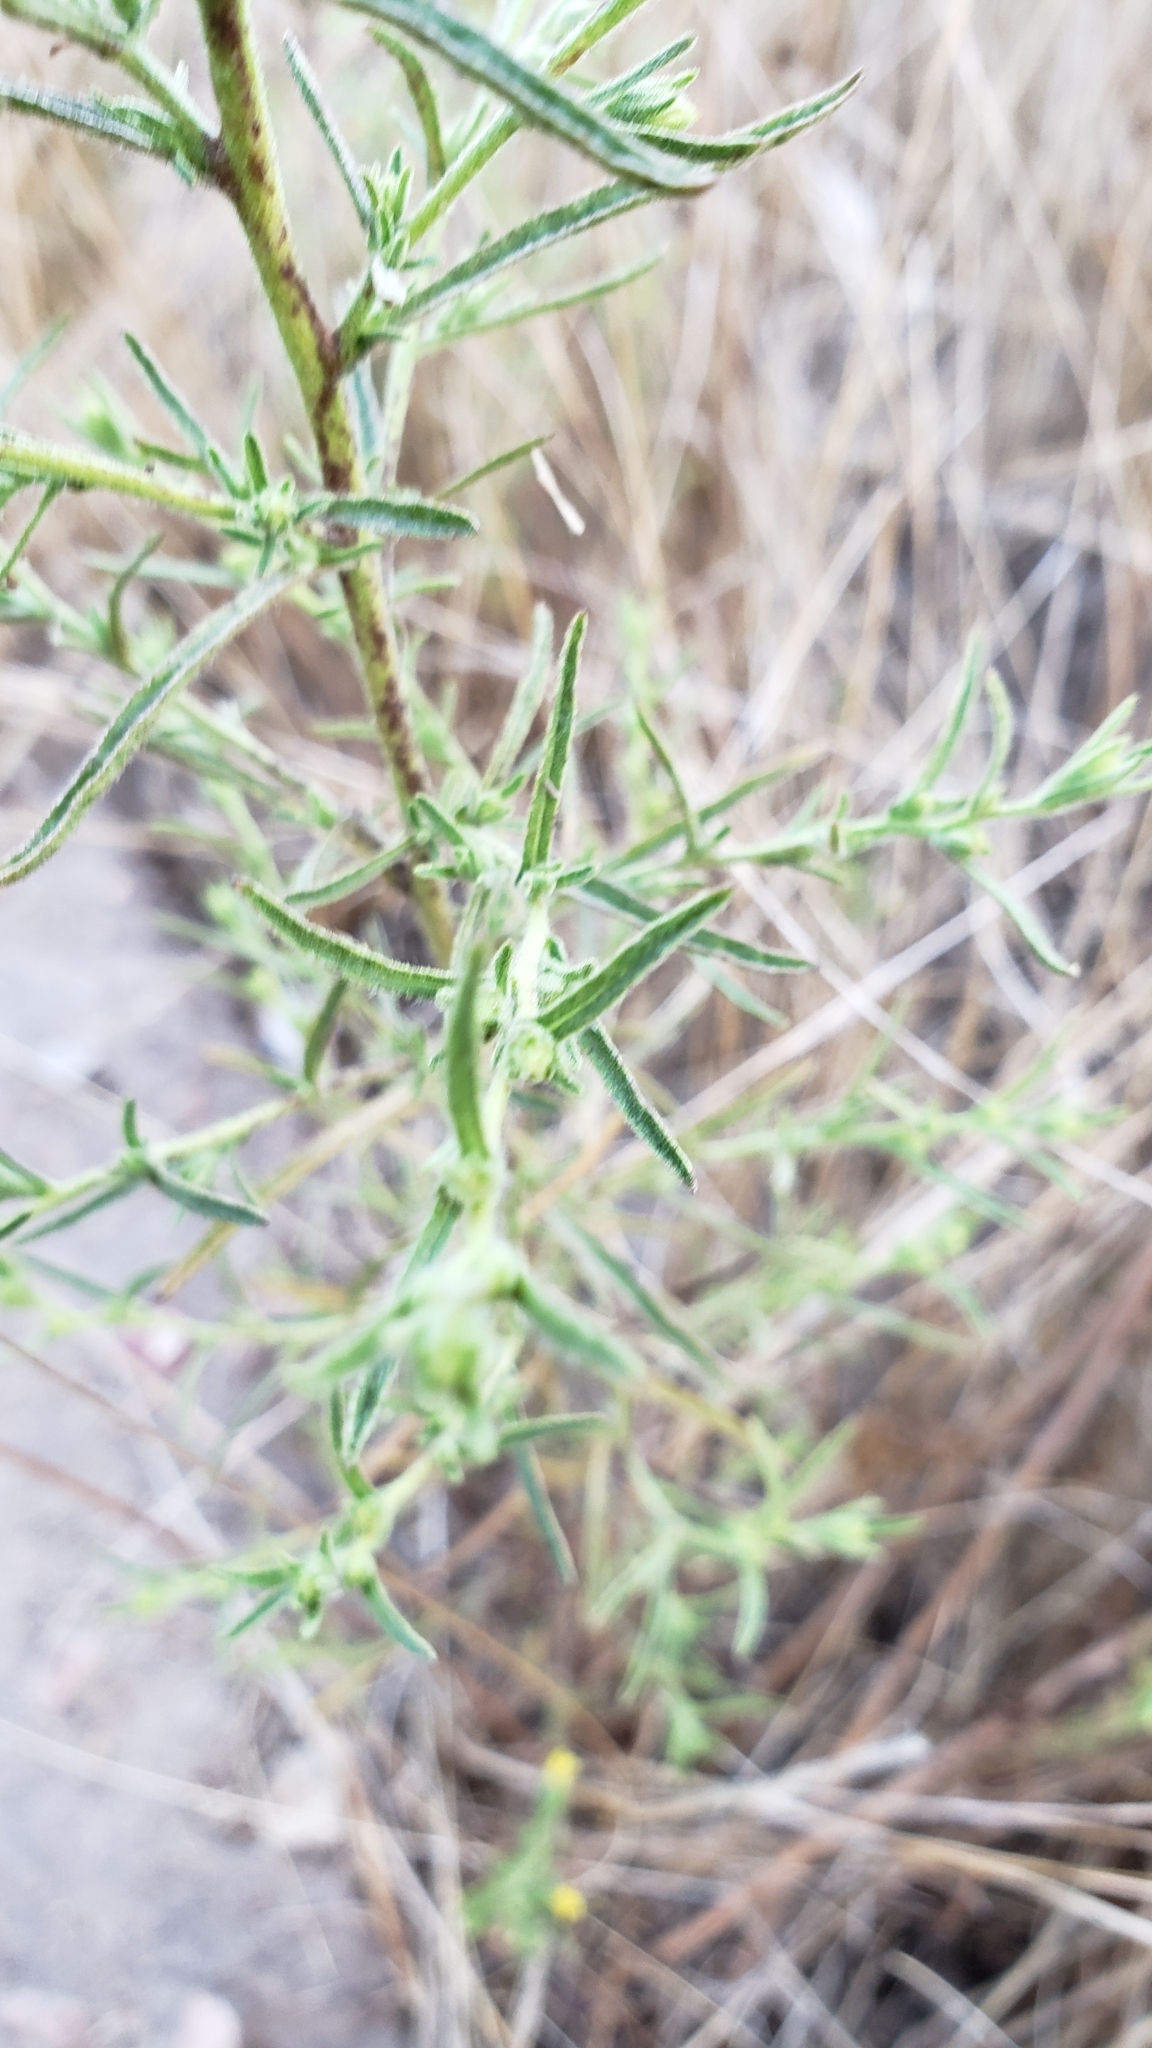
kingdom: Plantae
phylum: Tracheophyta
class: Magnoliopsida
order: Asterales
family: Asteraceae
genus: Dittrichia
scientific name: Dittrichia graveolens
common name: Stinking fleabane
